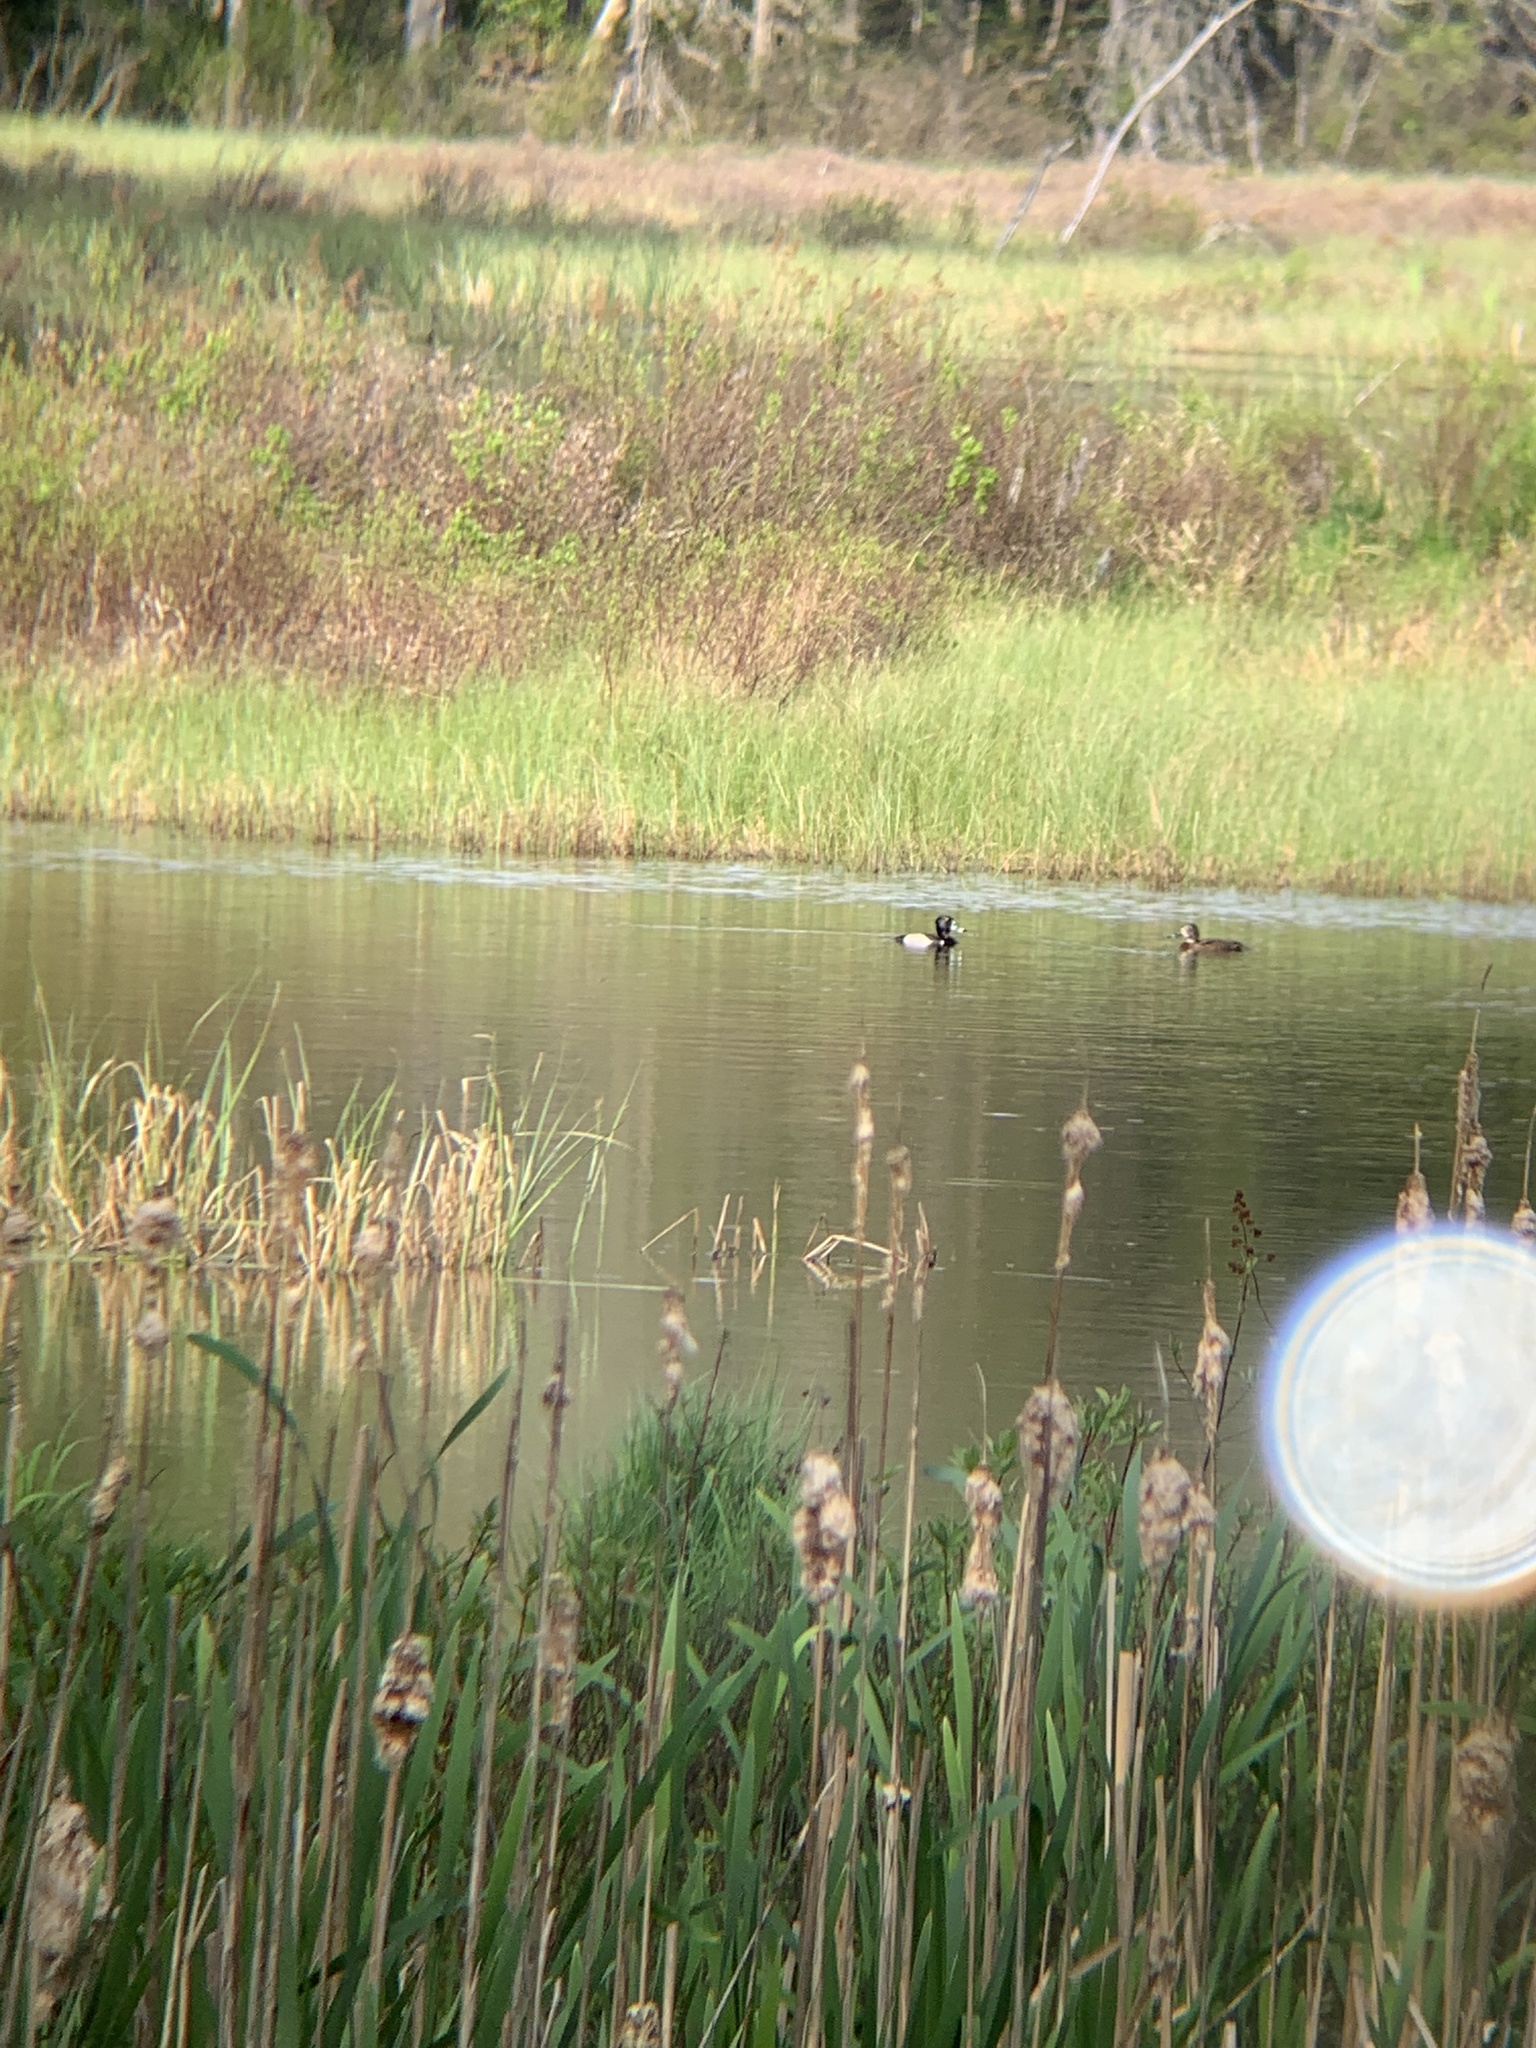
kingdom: Animalia
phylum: Chordata
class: Aves
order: Anseriformes
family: Anatidae
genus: Aythya
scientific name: Aythya collaris
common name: Ring-necked duck
